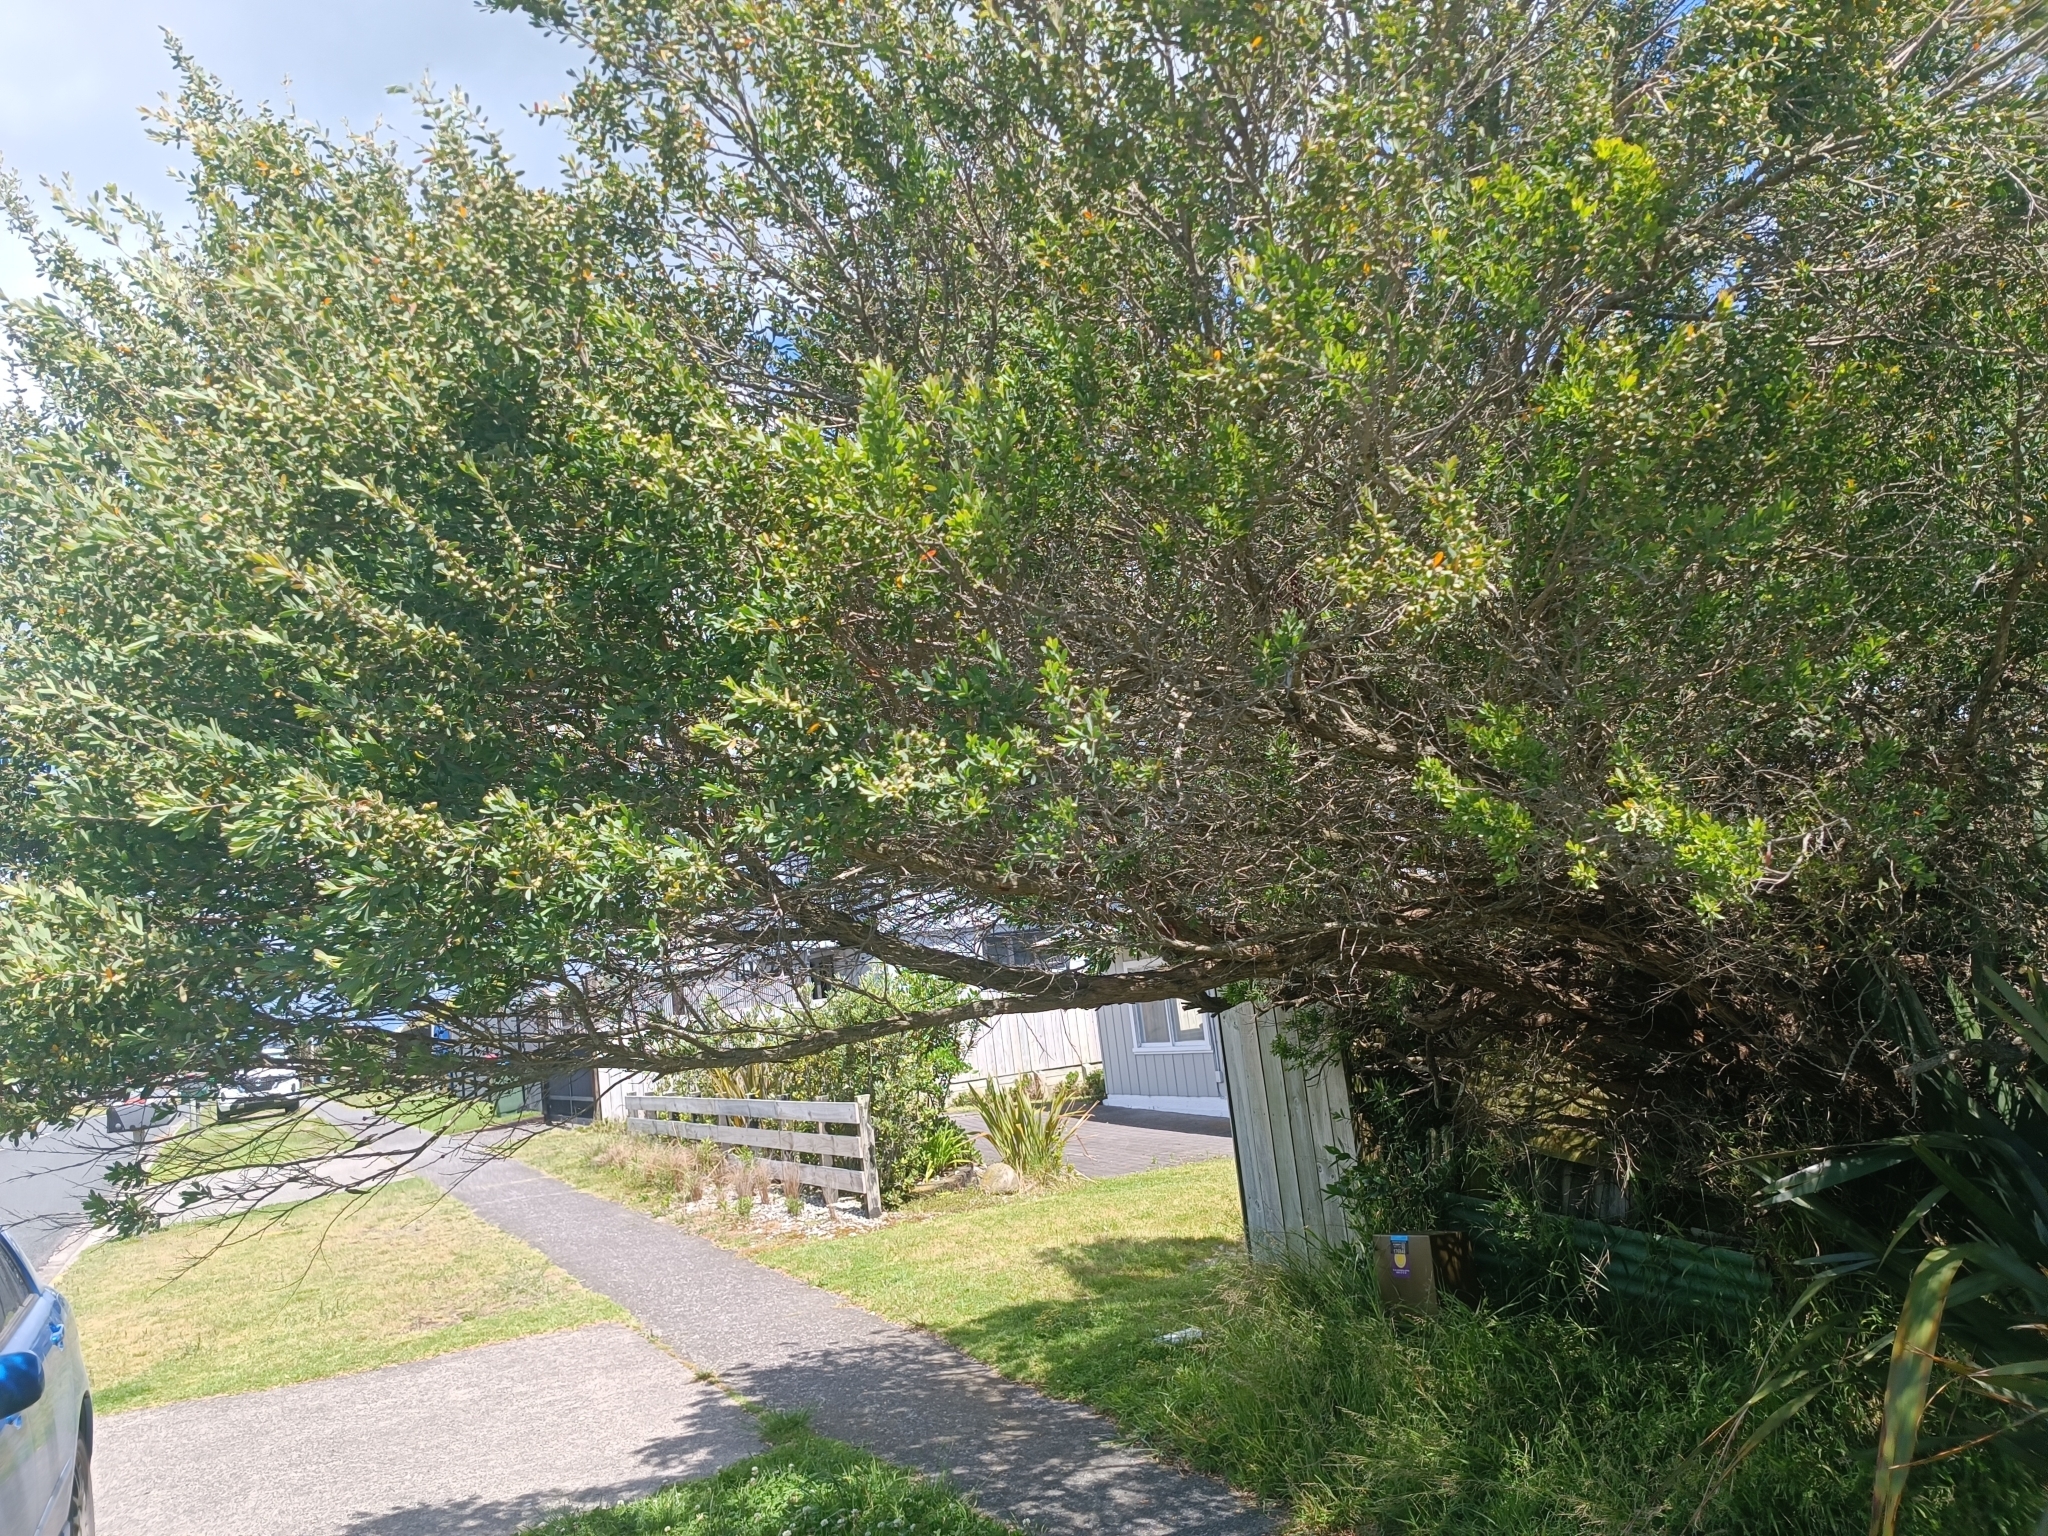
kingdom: Plantae
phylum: Tracheophyta
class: Magnoliopsida
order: Myrtales
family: Myrtaceae
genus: Leptospermum
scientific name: Leptospermum laevigatum
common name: Australian teatree
